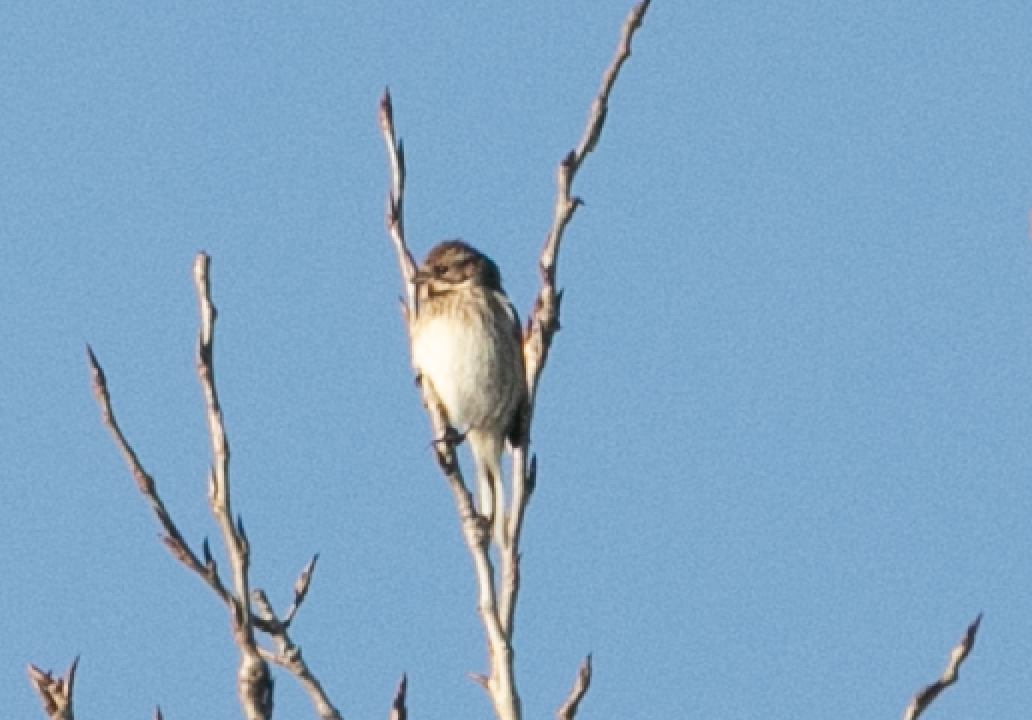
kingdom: Animalia
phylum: Chordata
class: Aves
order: Passeriformes
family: Emberizidae
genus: Emberiza
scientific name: Emberiza schoeniclus
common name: Reed bunting
